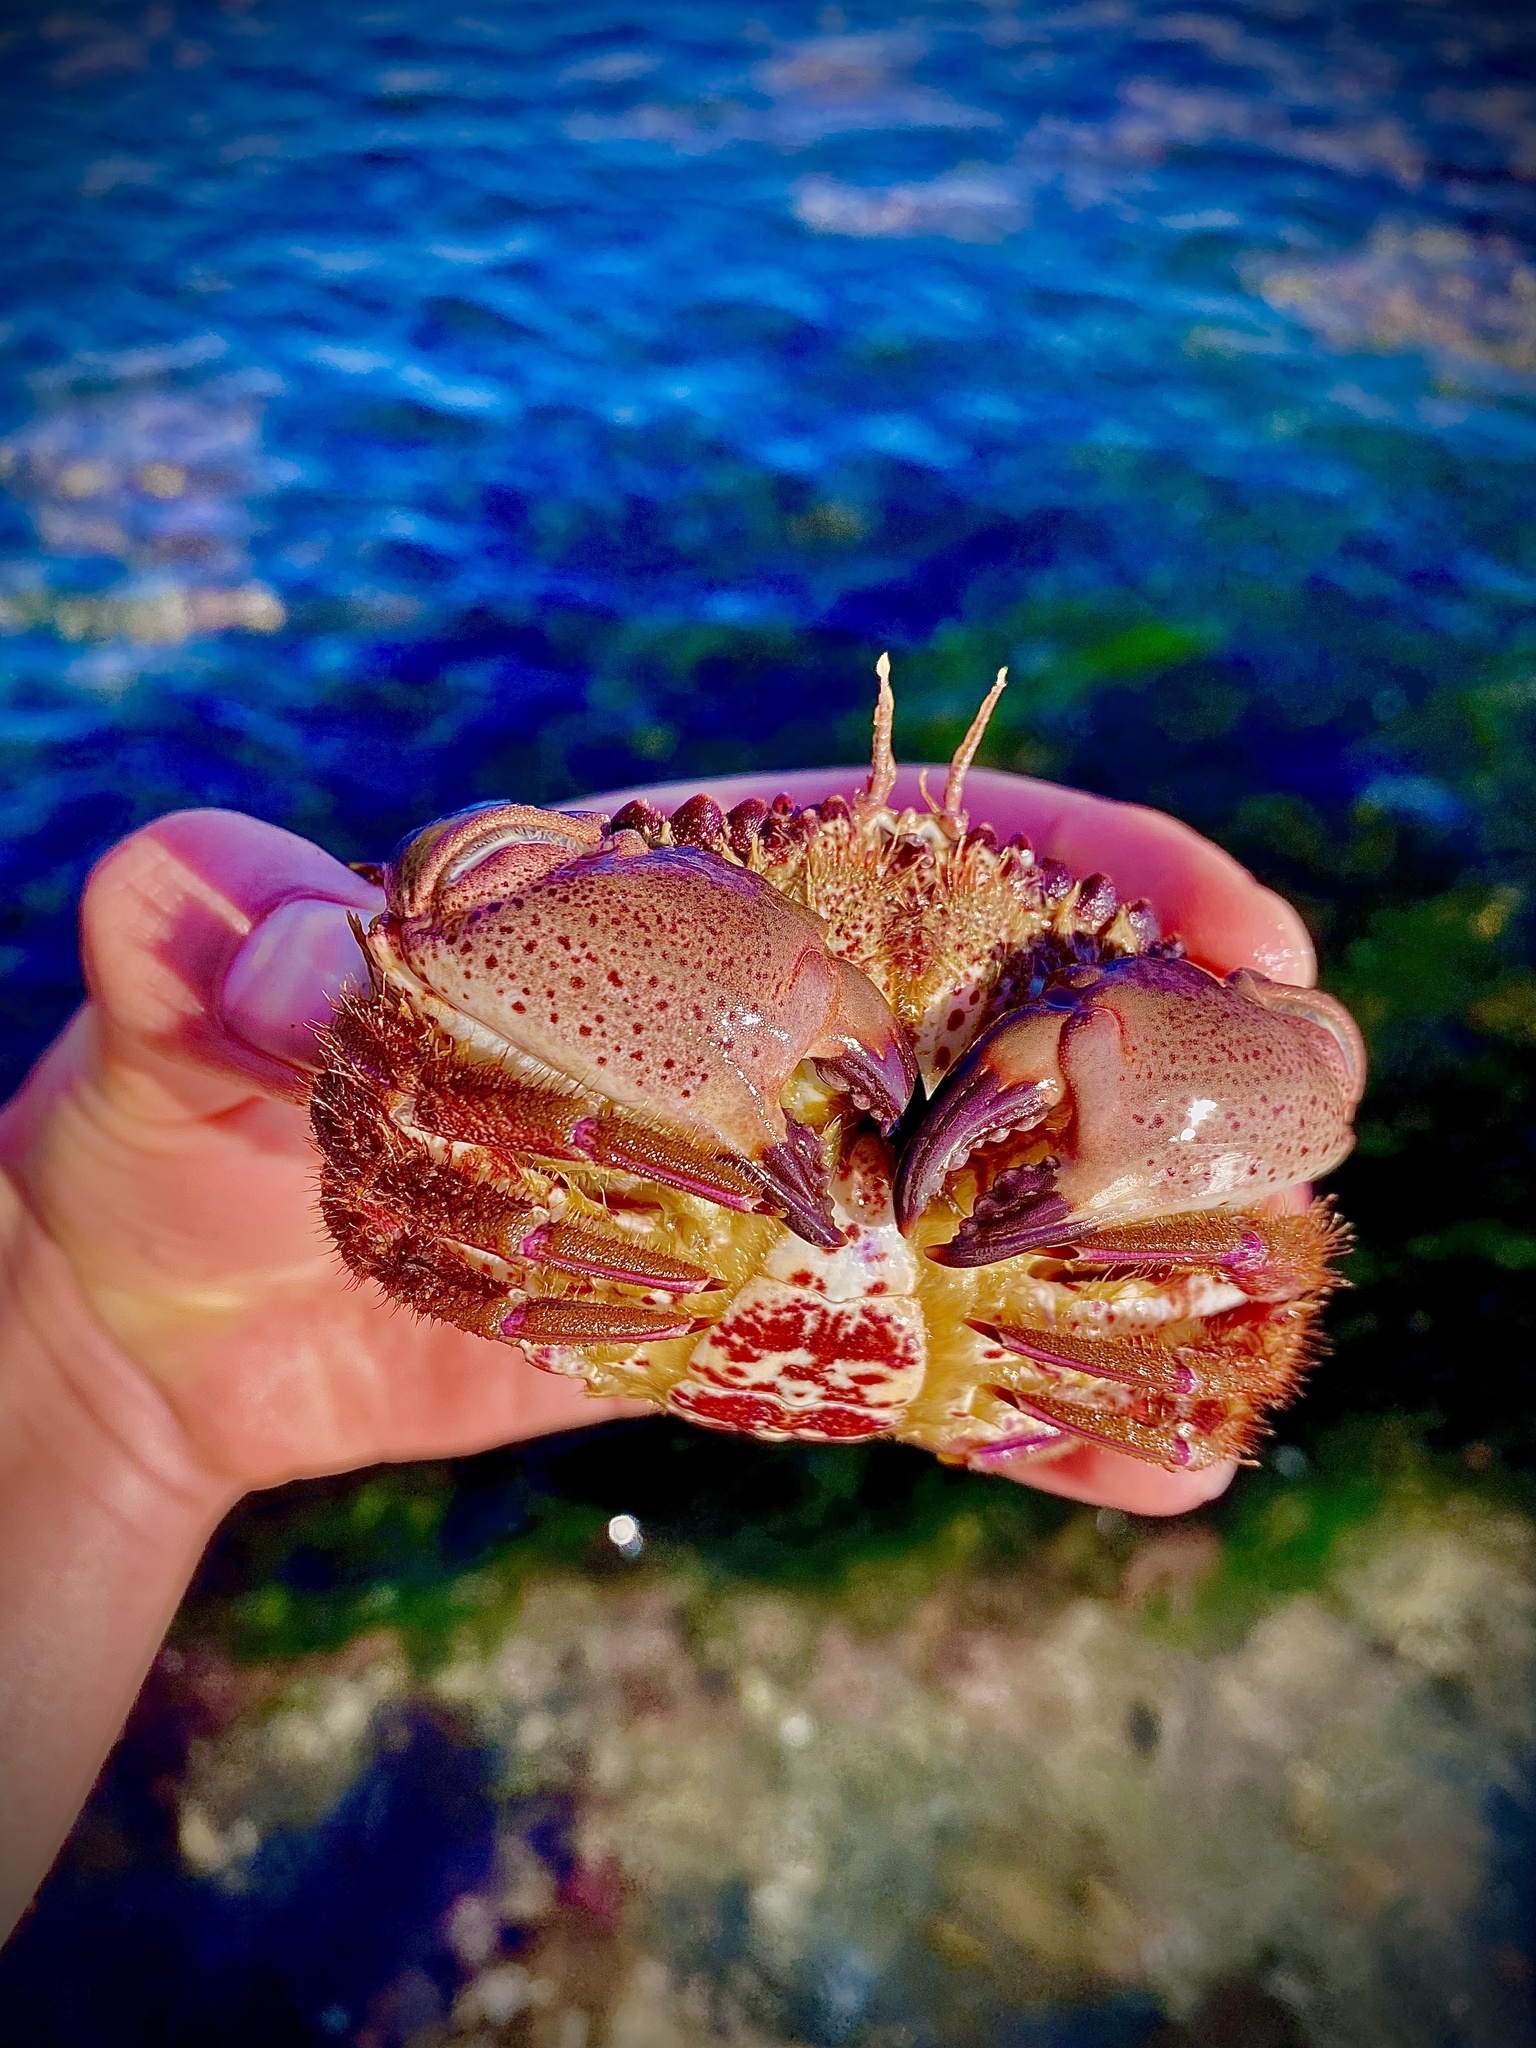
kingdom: Animalia
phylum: Arthropoda
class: Malacostraca
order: Decapoda
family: Cancridae
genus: Romaleon
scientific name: Romaleon antennarium
